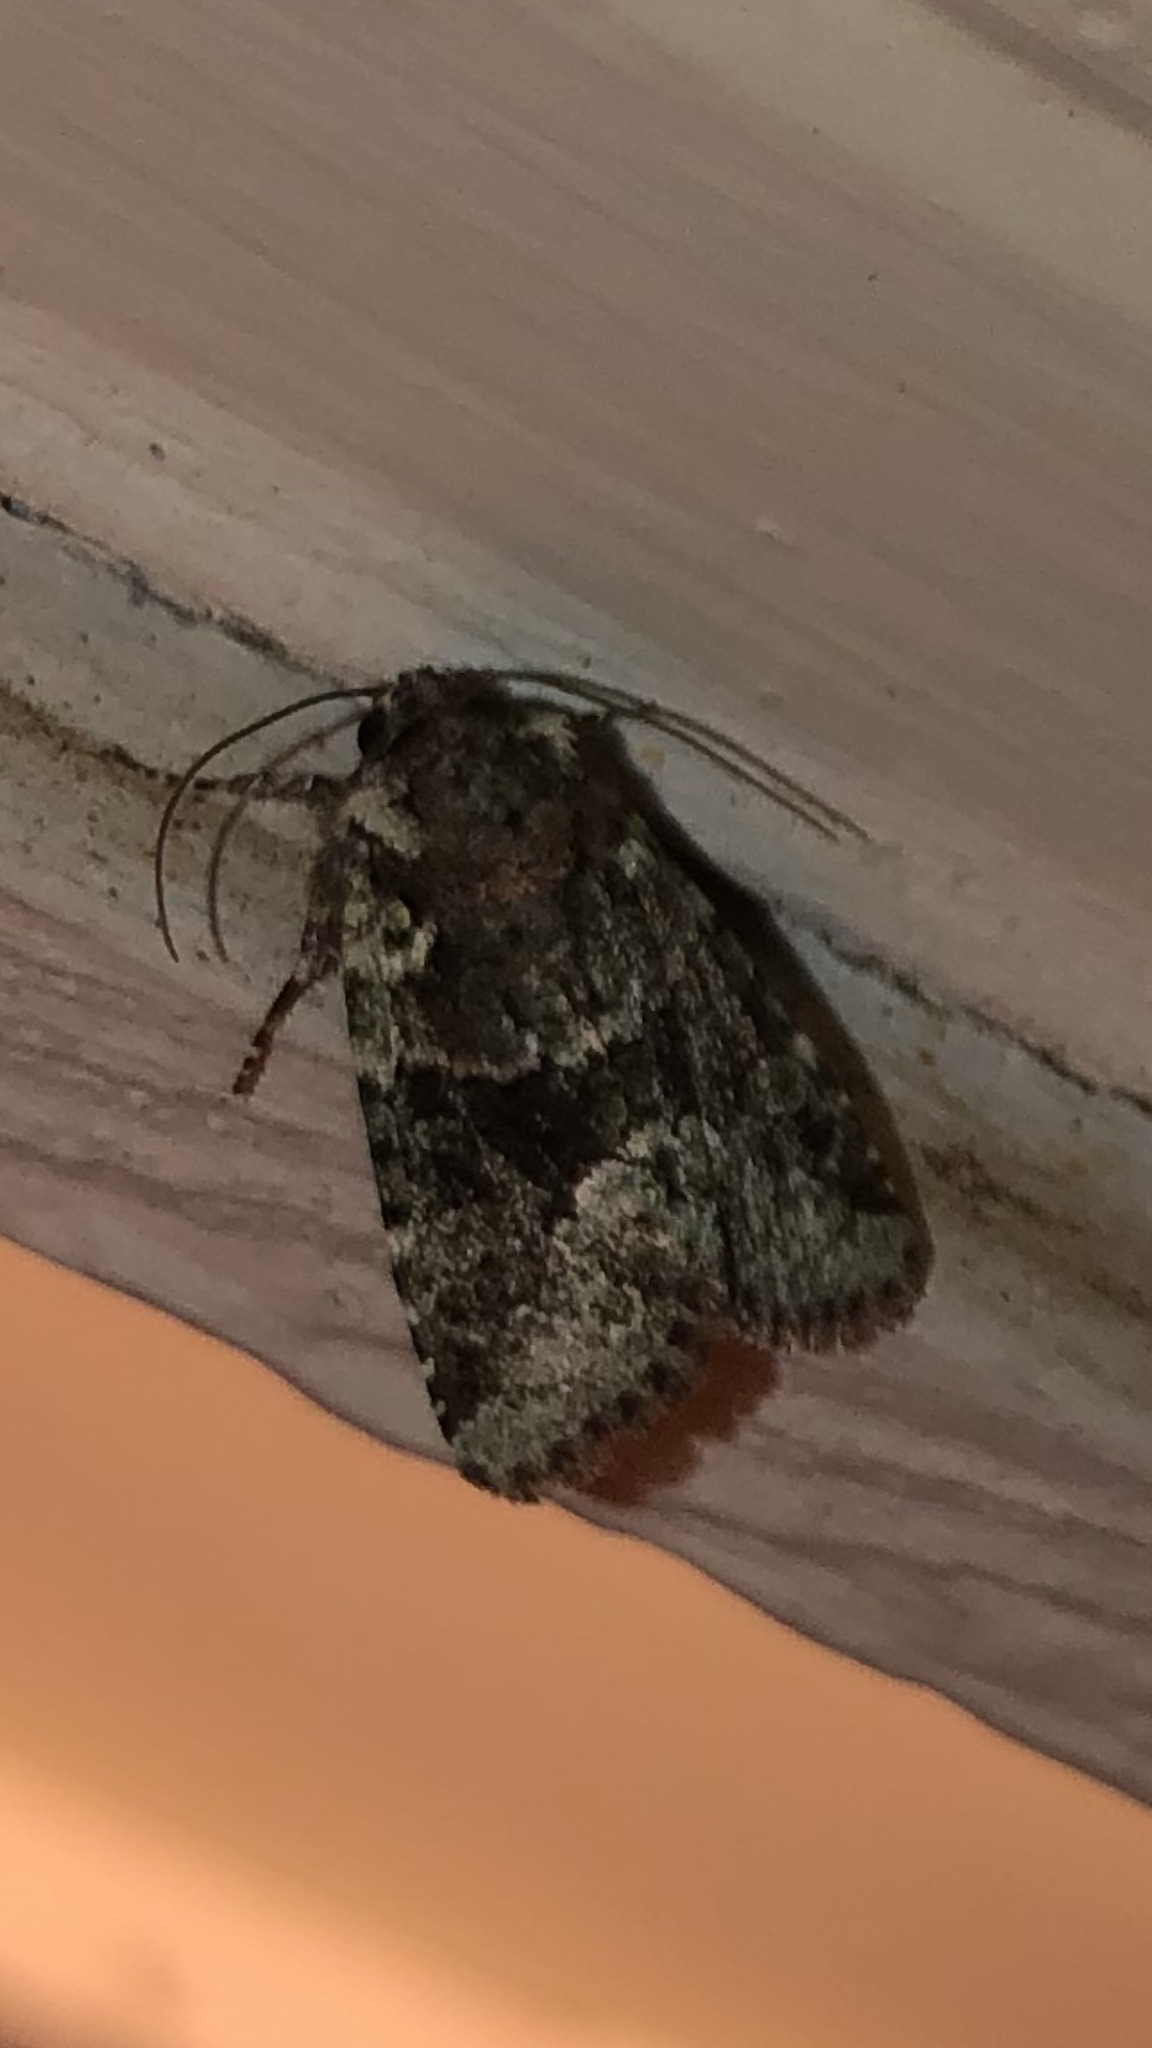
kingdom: Animalia
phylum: Arthropoda
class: Insecta
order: Lepidoptera
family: Noctuidae
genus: Lacinipolia
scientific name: Lacinipolia explicata
